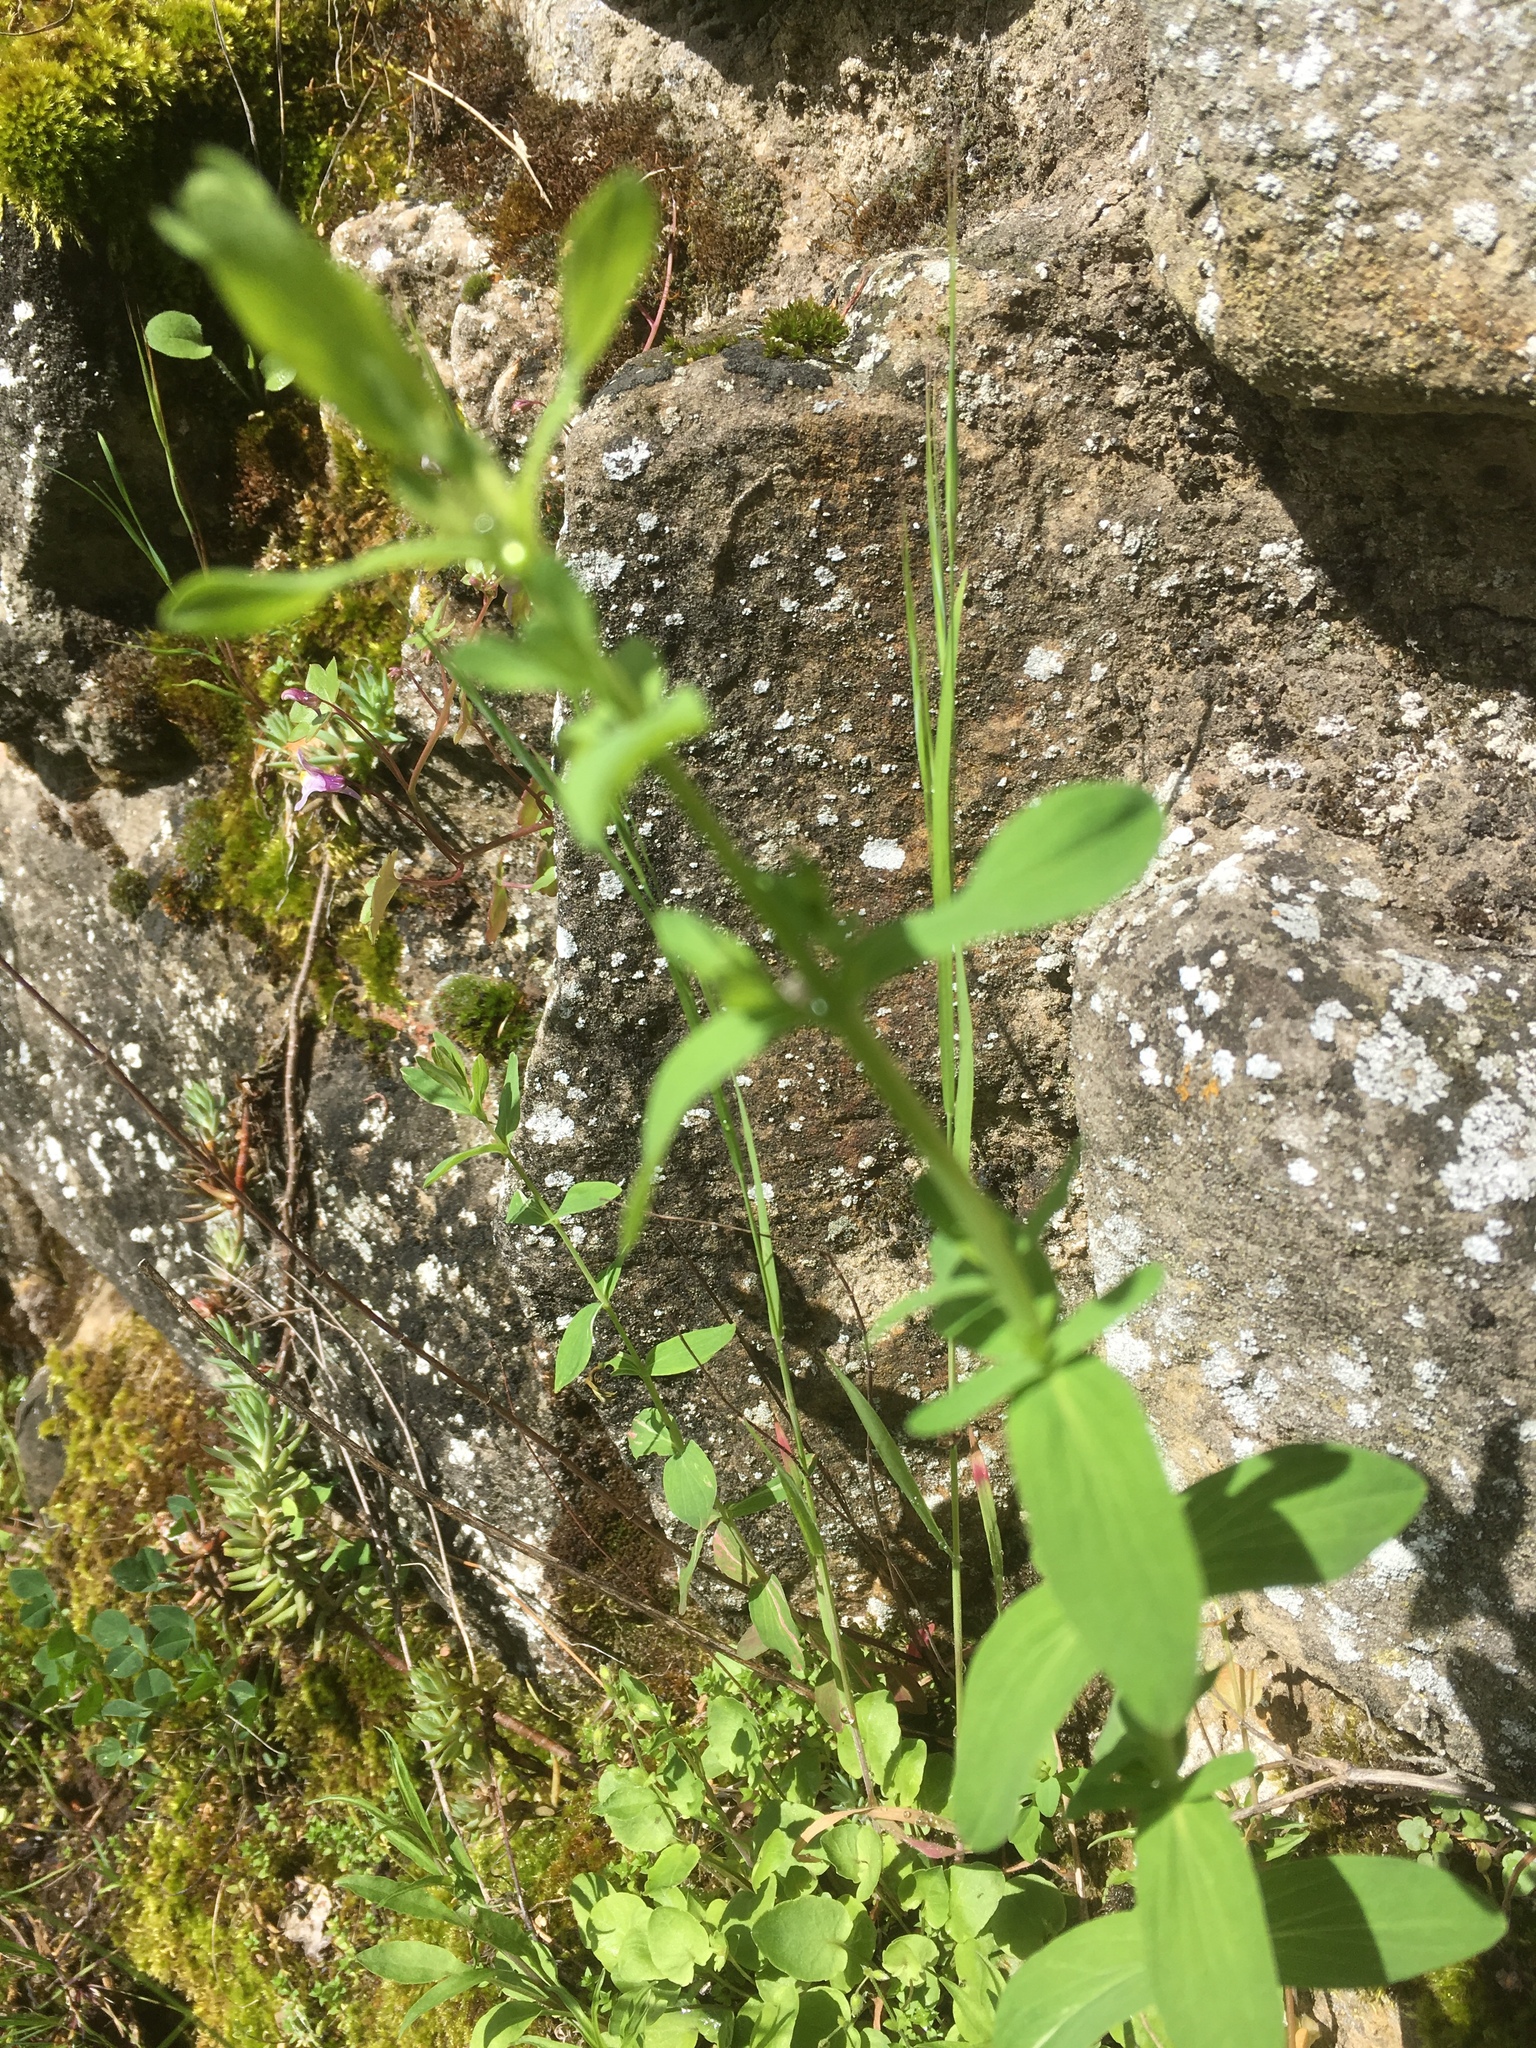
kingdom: Plantae
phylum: Tracheophyta
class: Magnoliopsida
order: Malpighiales
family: Hypericaceae
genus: Hypericum
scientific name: Hypericum perforatum
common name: Common st. johnswort
